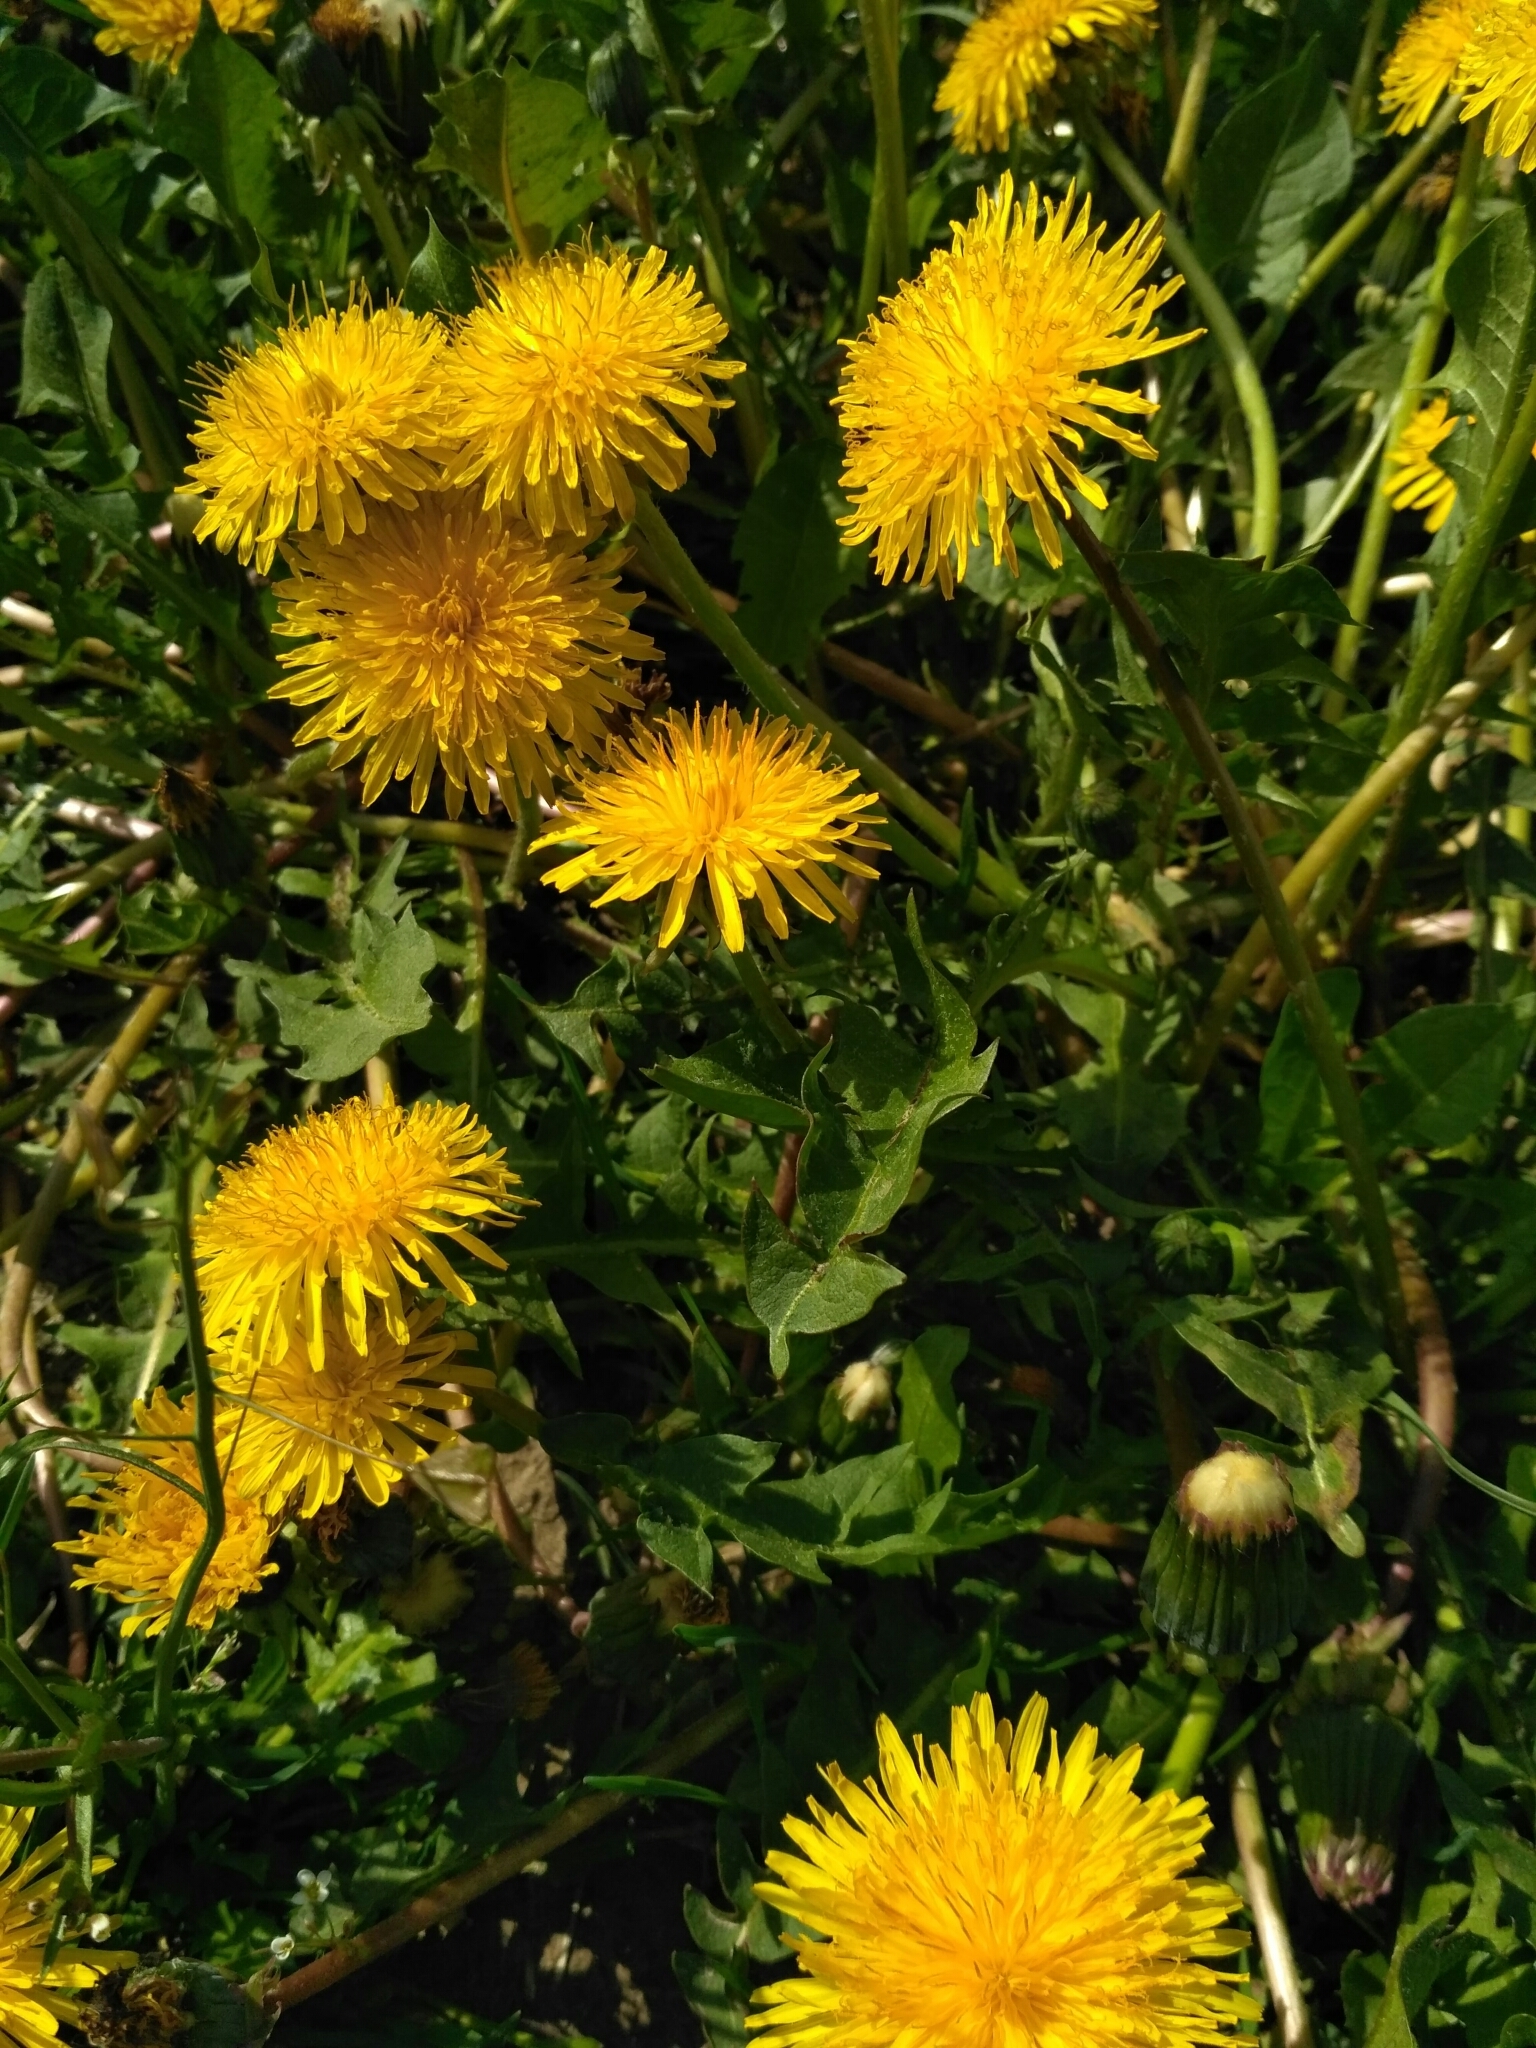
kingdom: Plantae
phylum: Tracheophyta
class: Magnoliopsida
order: Asterales
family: Asteraceae
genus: Taraxacum
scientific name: Taraxacum officinale
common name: Common dandelion
